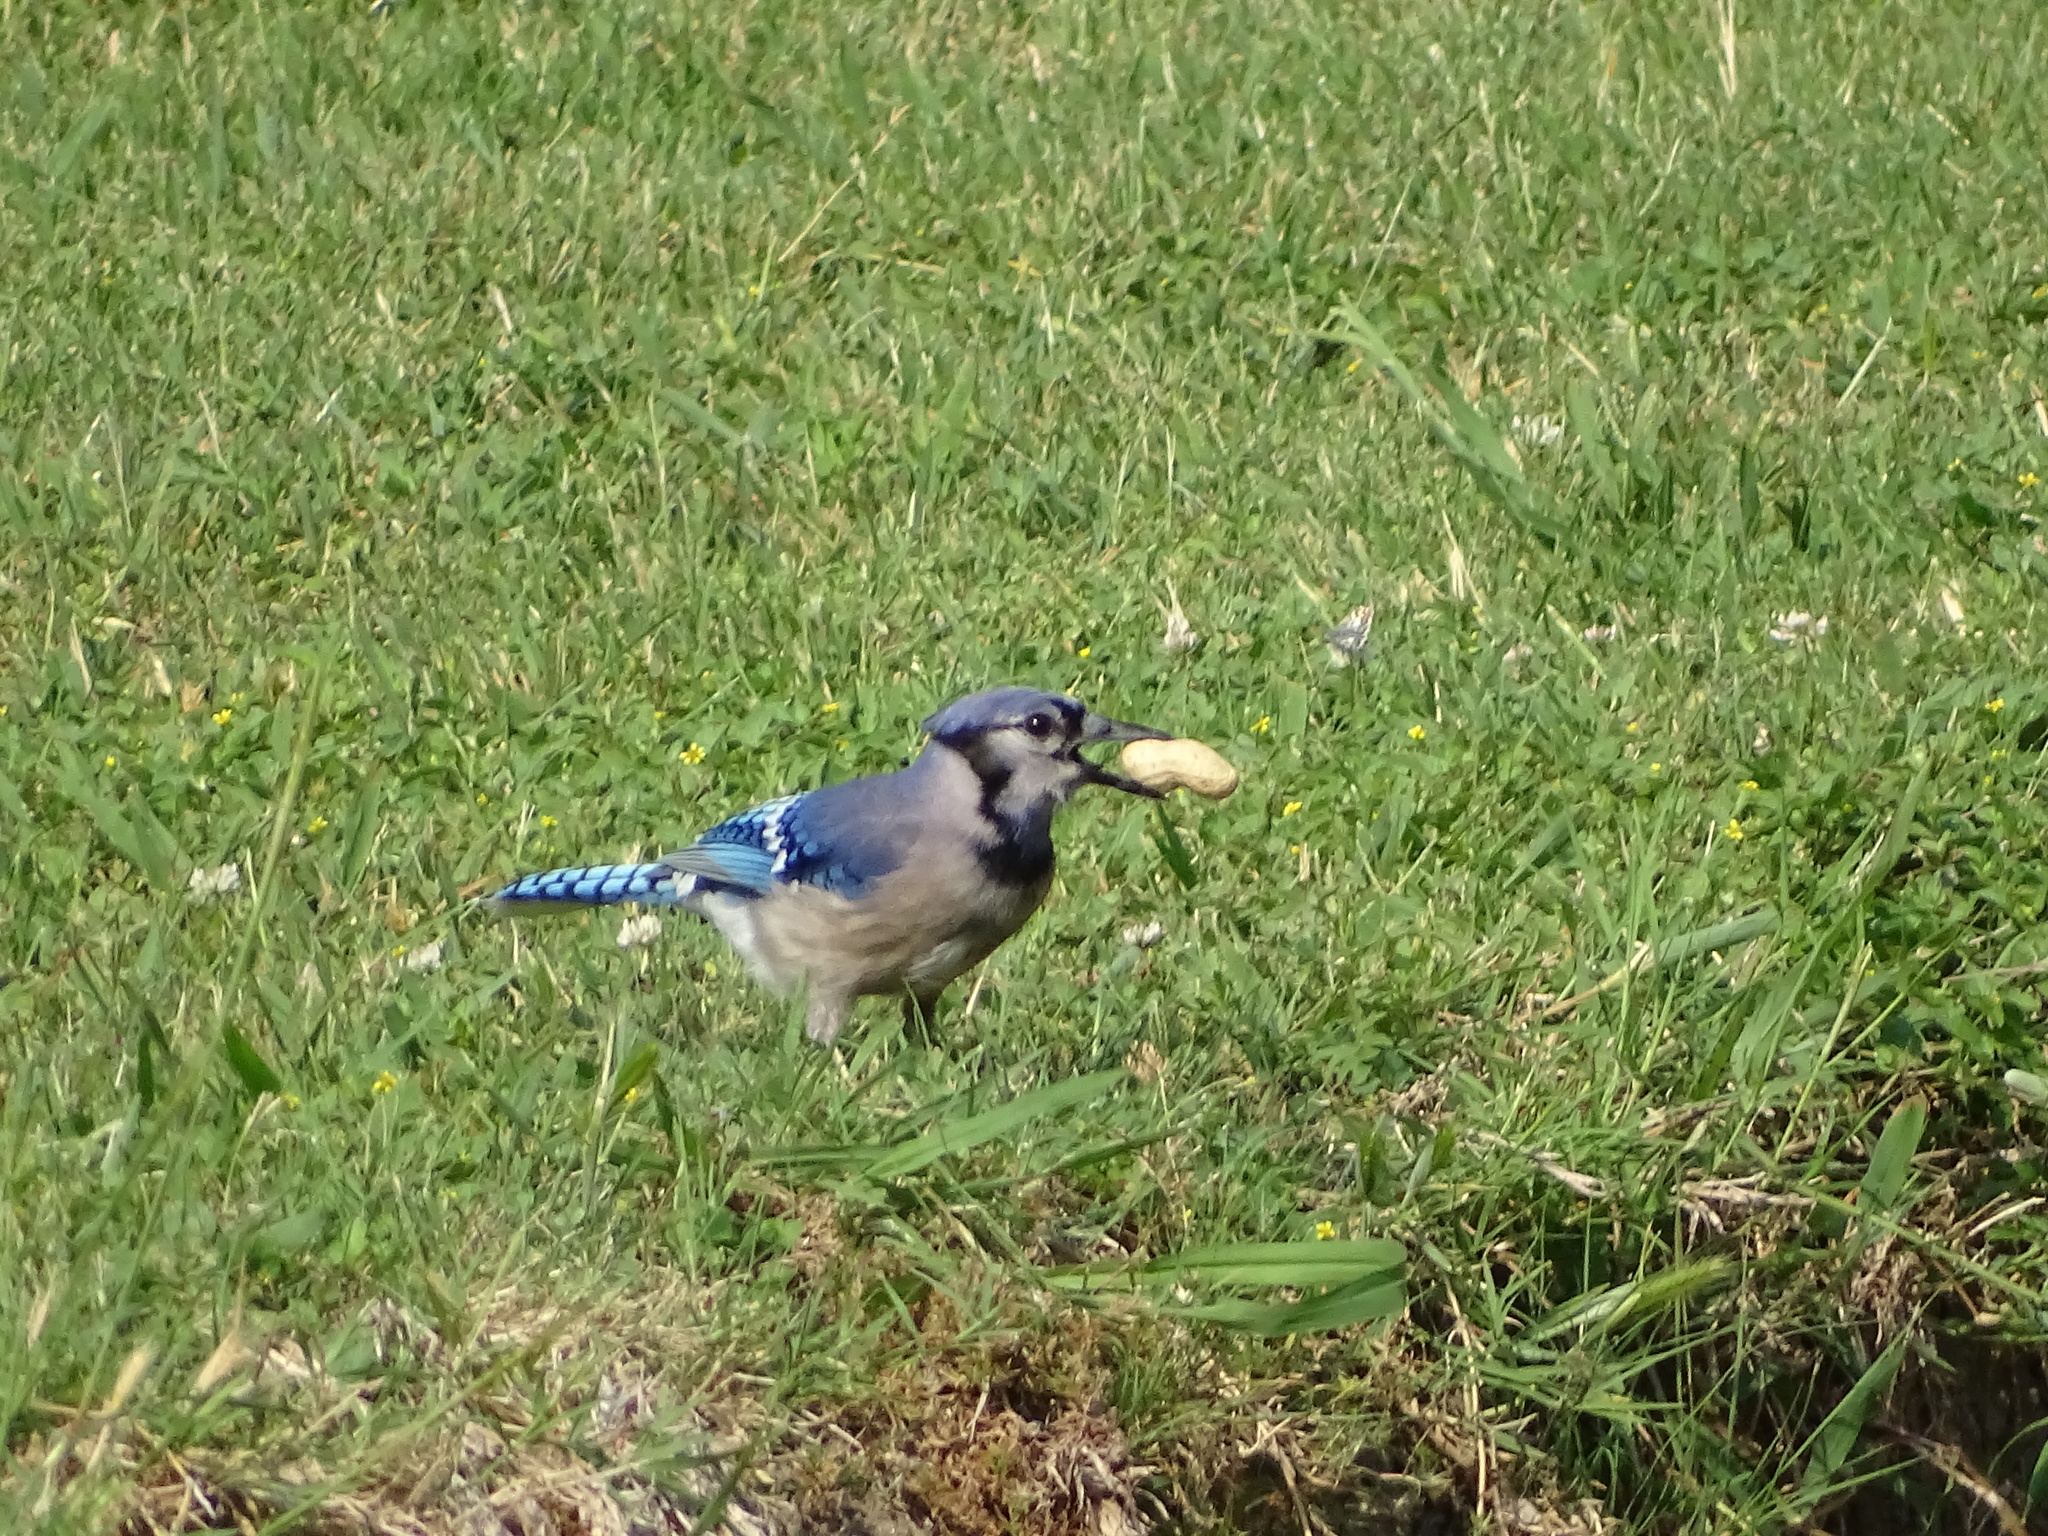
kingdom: Animalia
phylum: Chordata
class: Aves
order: Passeriformes
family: Corvidae
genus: Cyanocitta
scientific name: Cyanocitta cristata
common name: Blue jay
